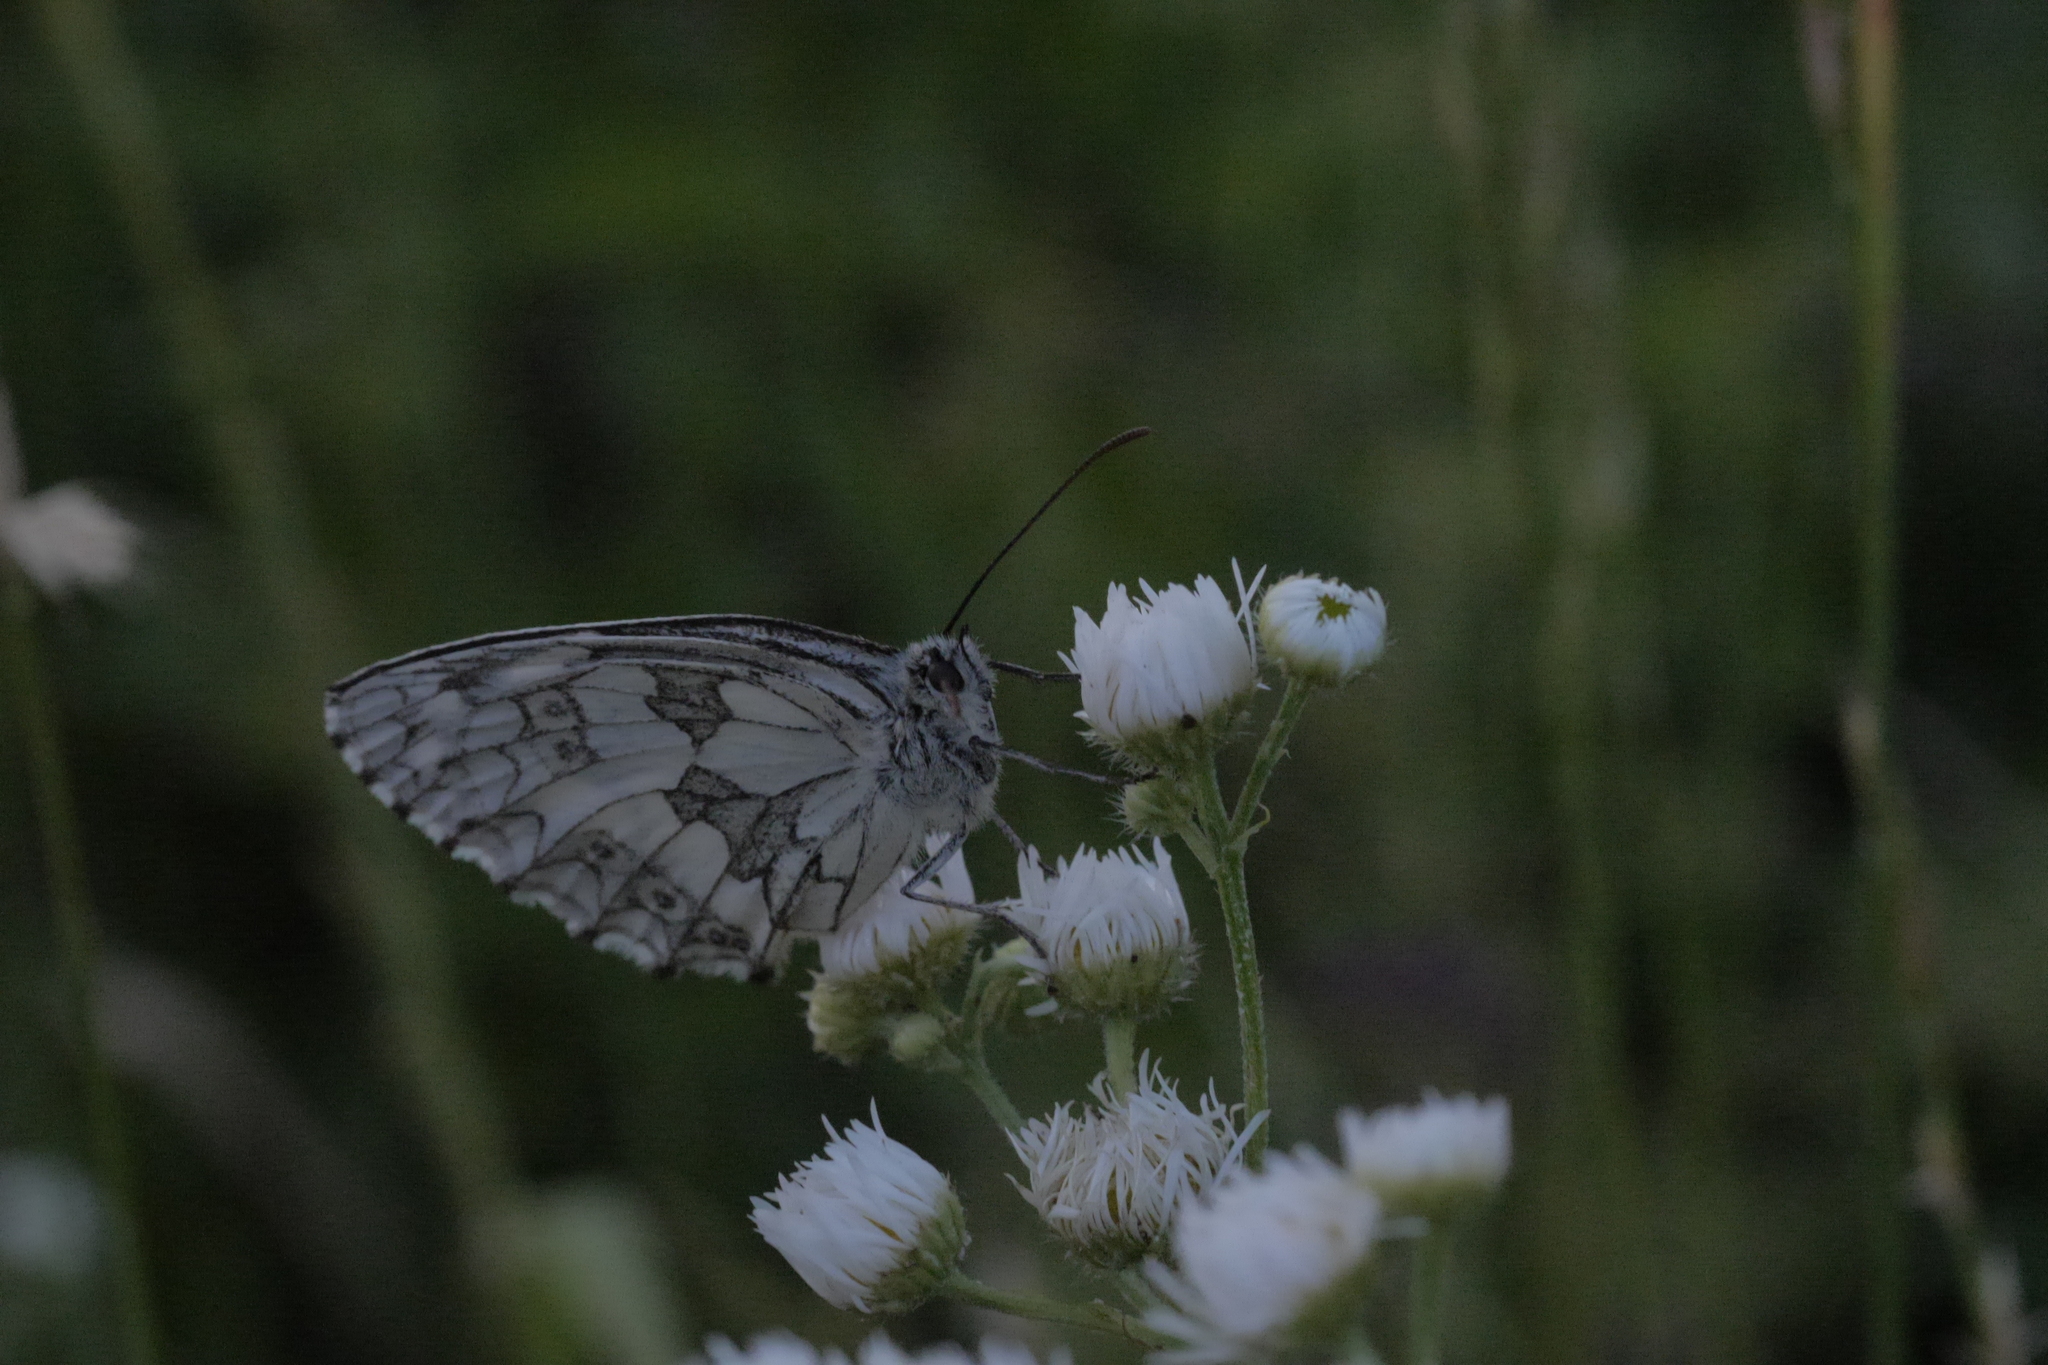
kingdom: Animalia
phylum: Arthropoda
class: Insecta
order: Lepidoptera
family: Nymphalidae
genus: Melanargia
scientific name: Melanargia galathea
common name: Marbled white
